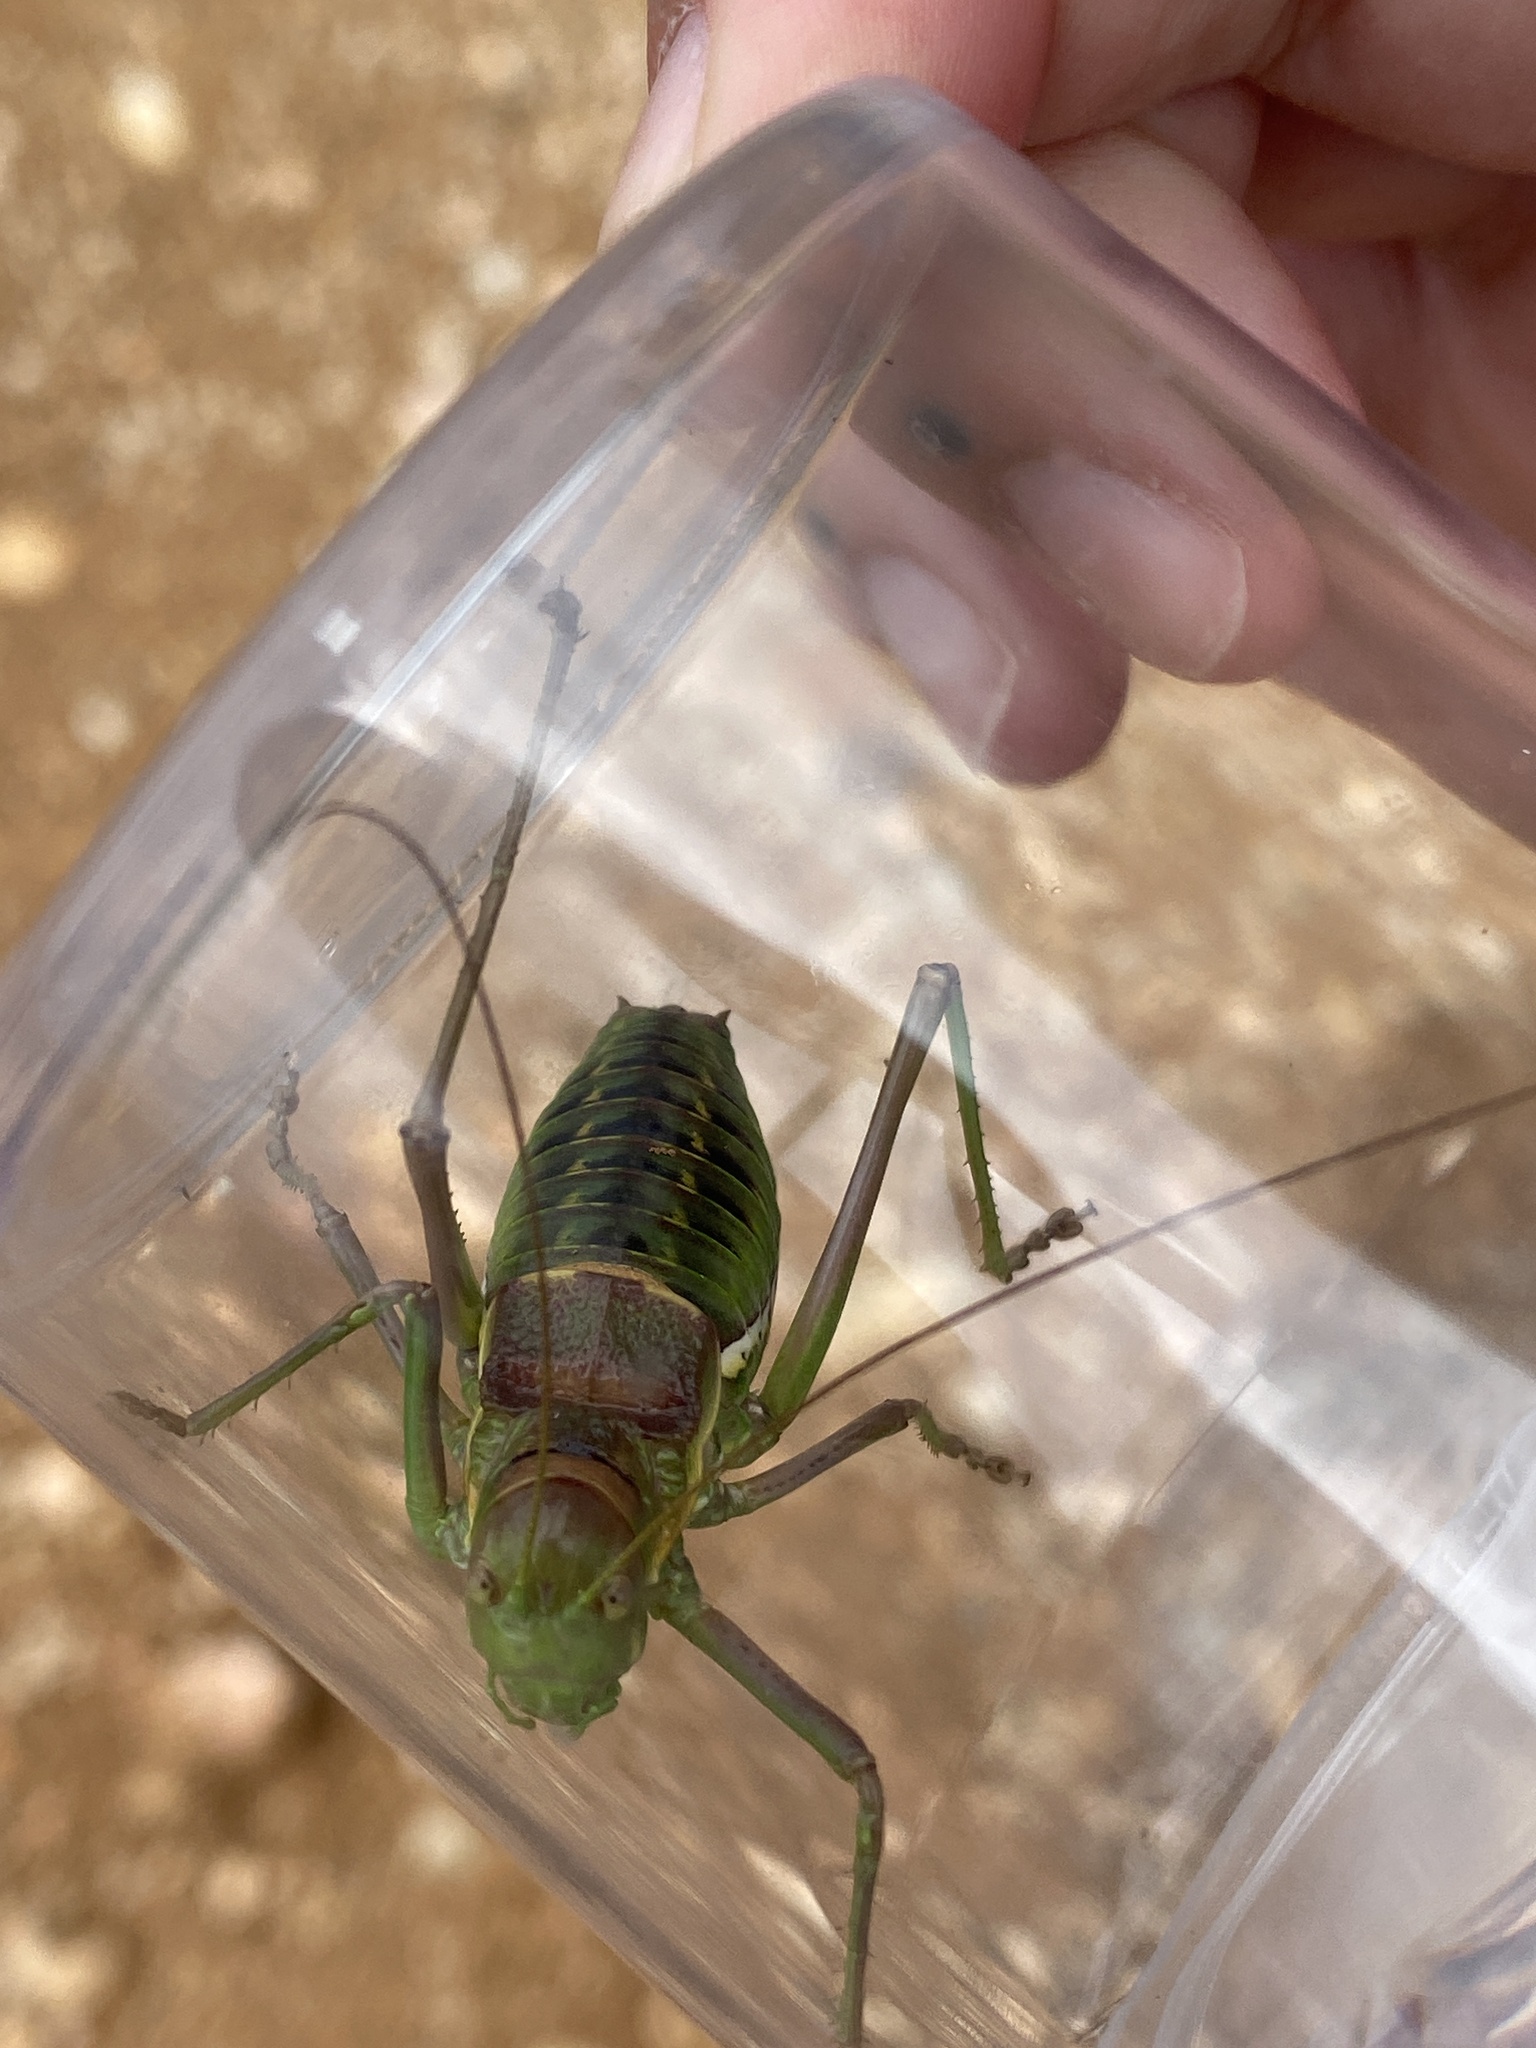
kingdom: Animalia
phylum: Arthropoda
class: Insecta
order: Orthoptera
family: Tettigoniidae
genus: Parasteropleurus
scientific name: Parasteropleurus perezii
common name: Perez's saddle bush-cricke
